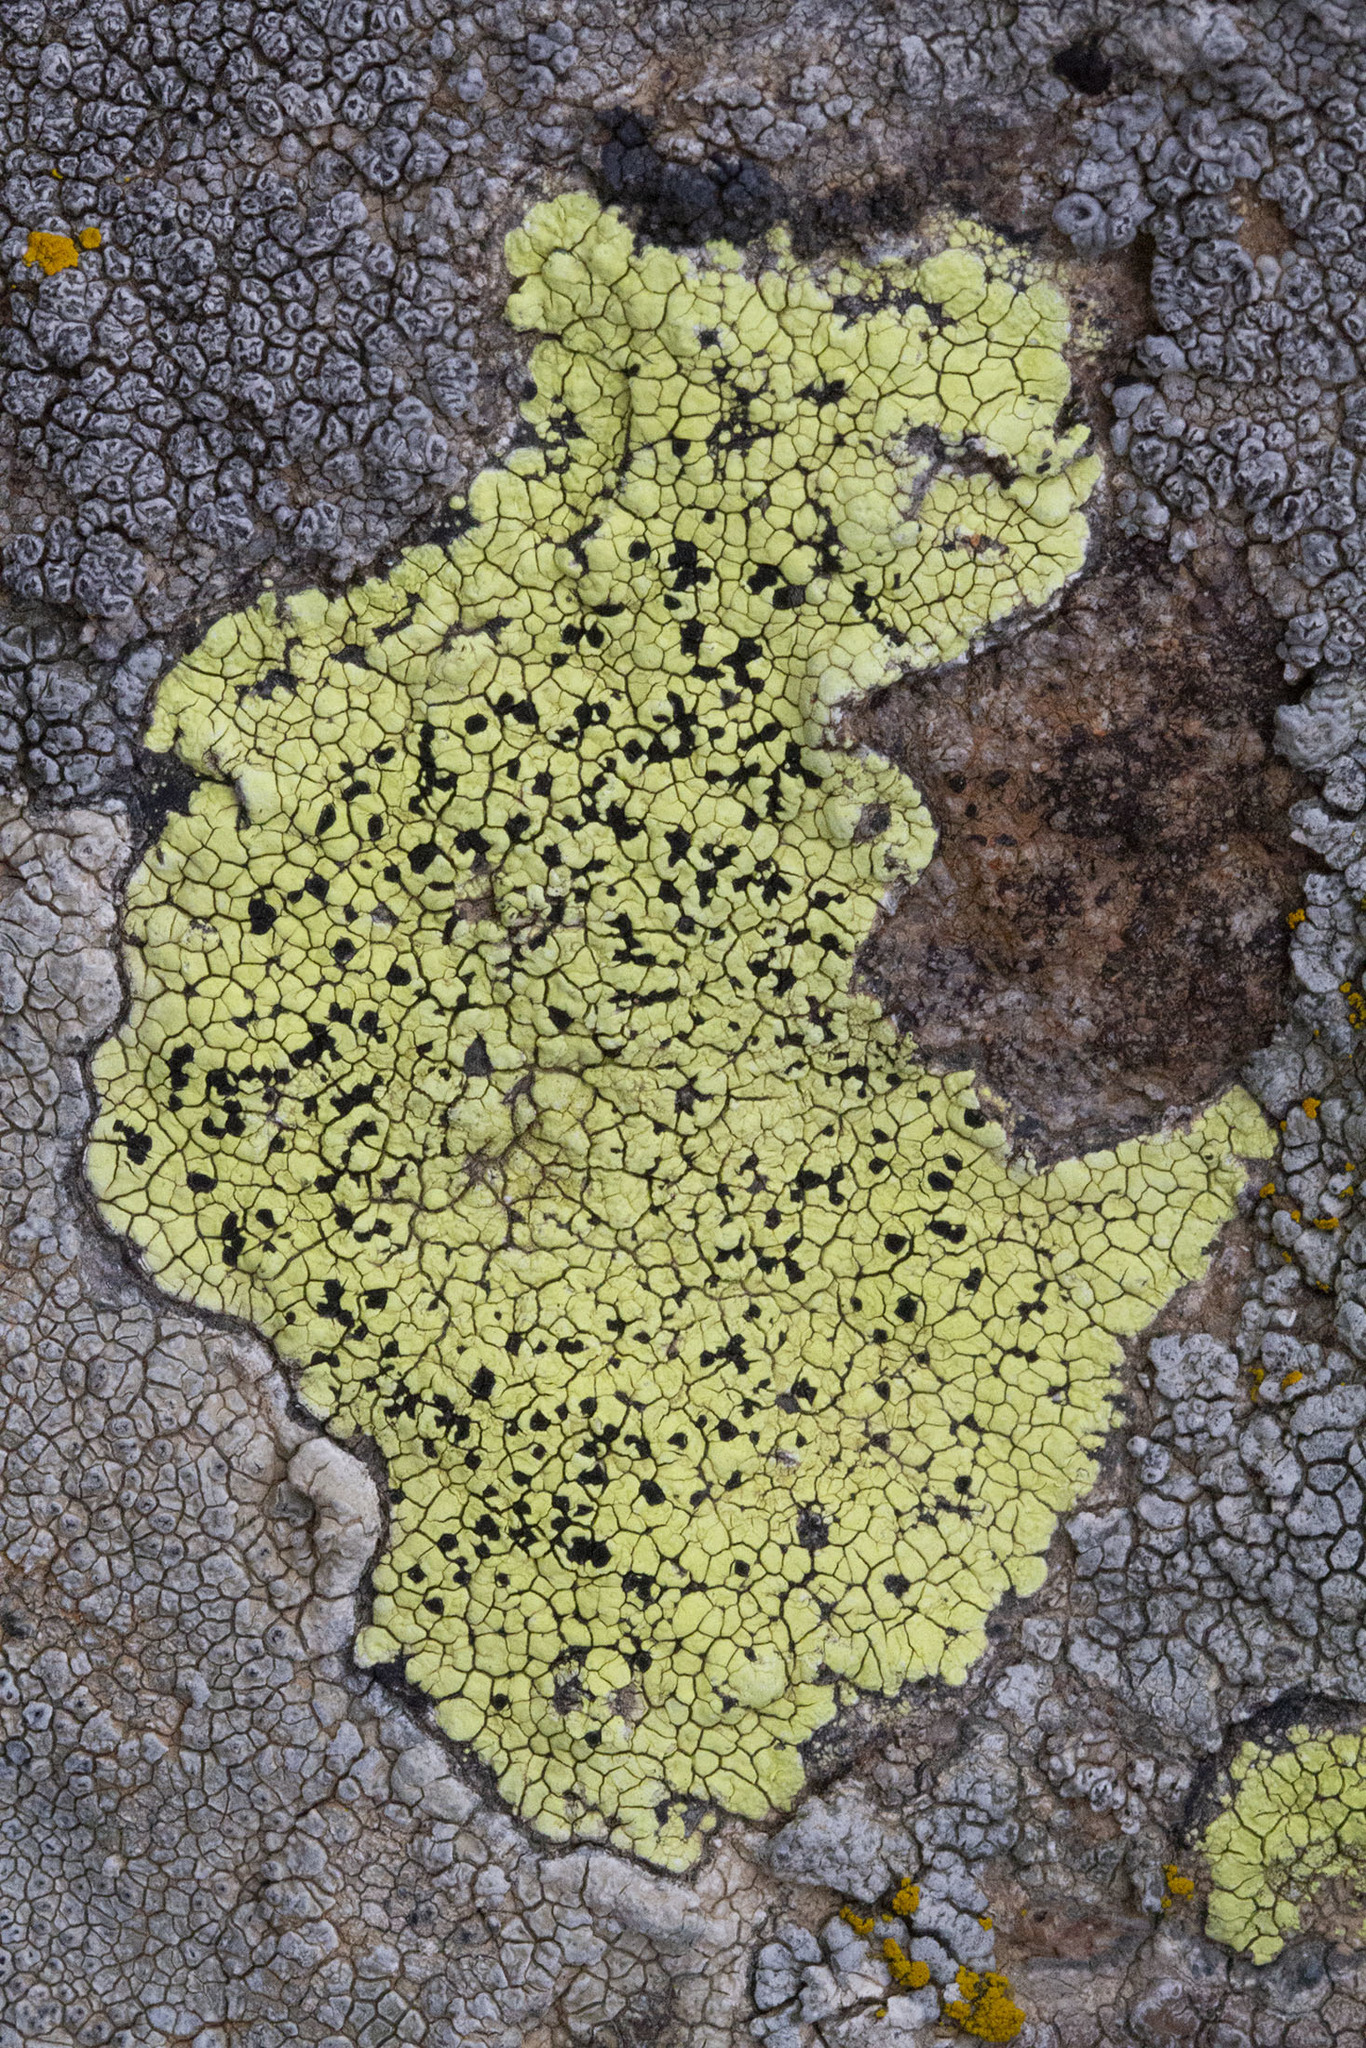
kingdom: Fungi
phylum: Ascomycota
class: Lecanoromycetes
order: Rhizocarpales
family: Rhizocarpaceae
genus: Rhizocarpon
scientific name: Rhizocarpon geographicum
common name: Yellow map lichen
